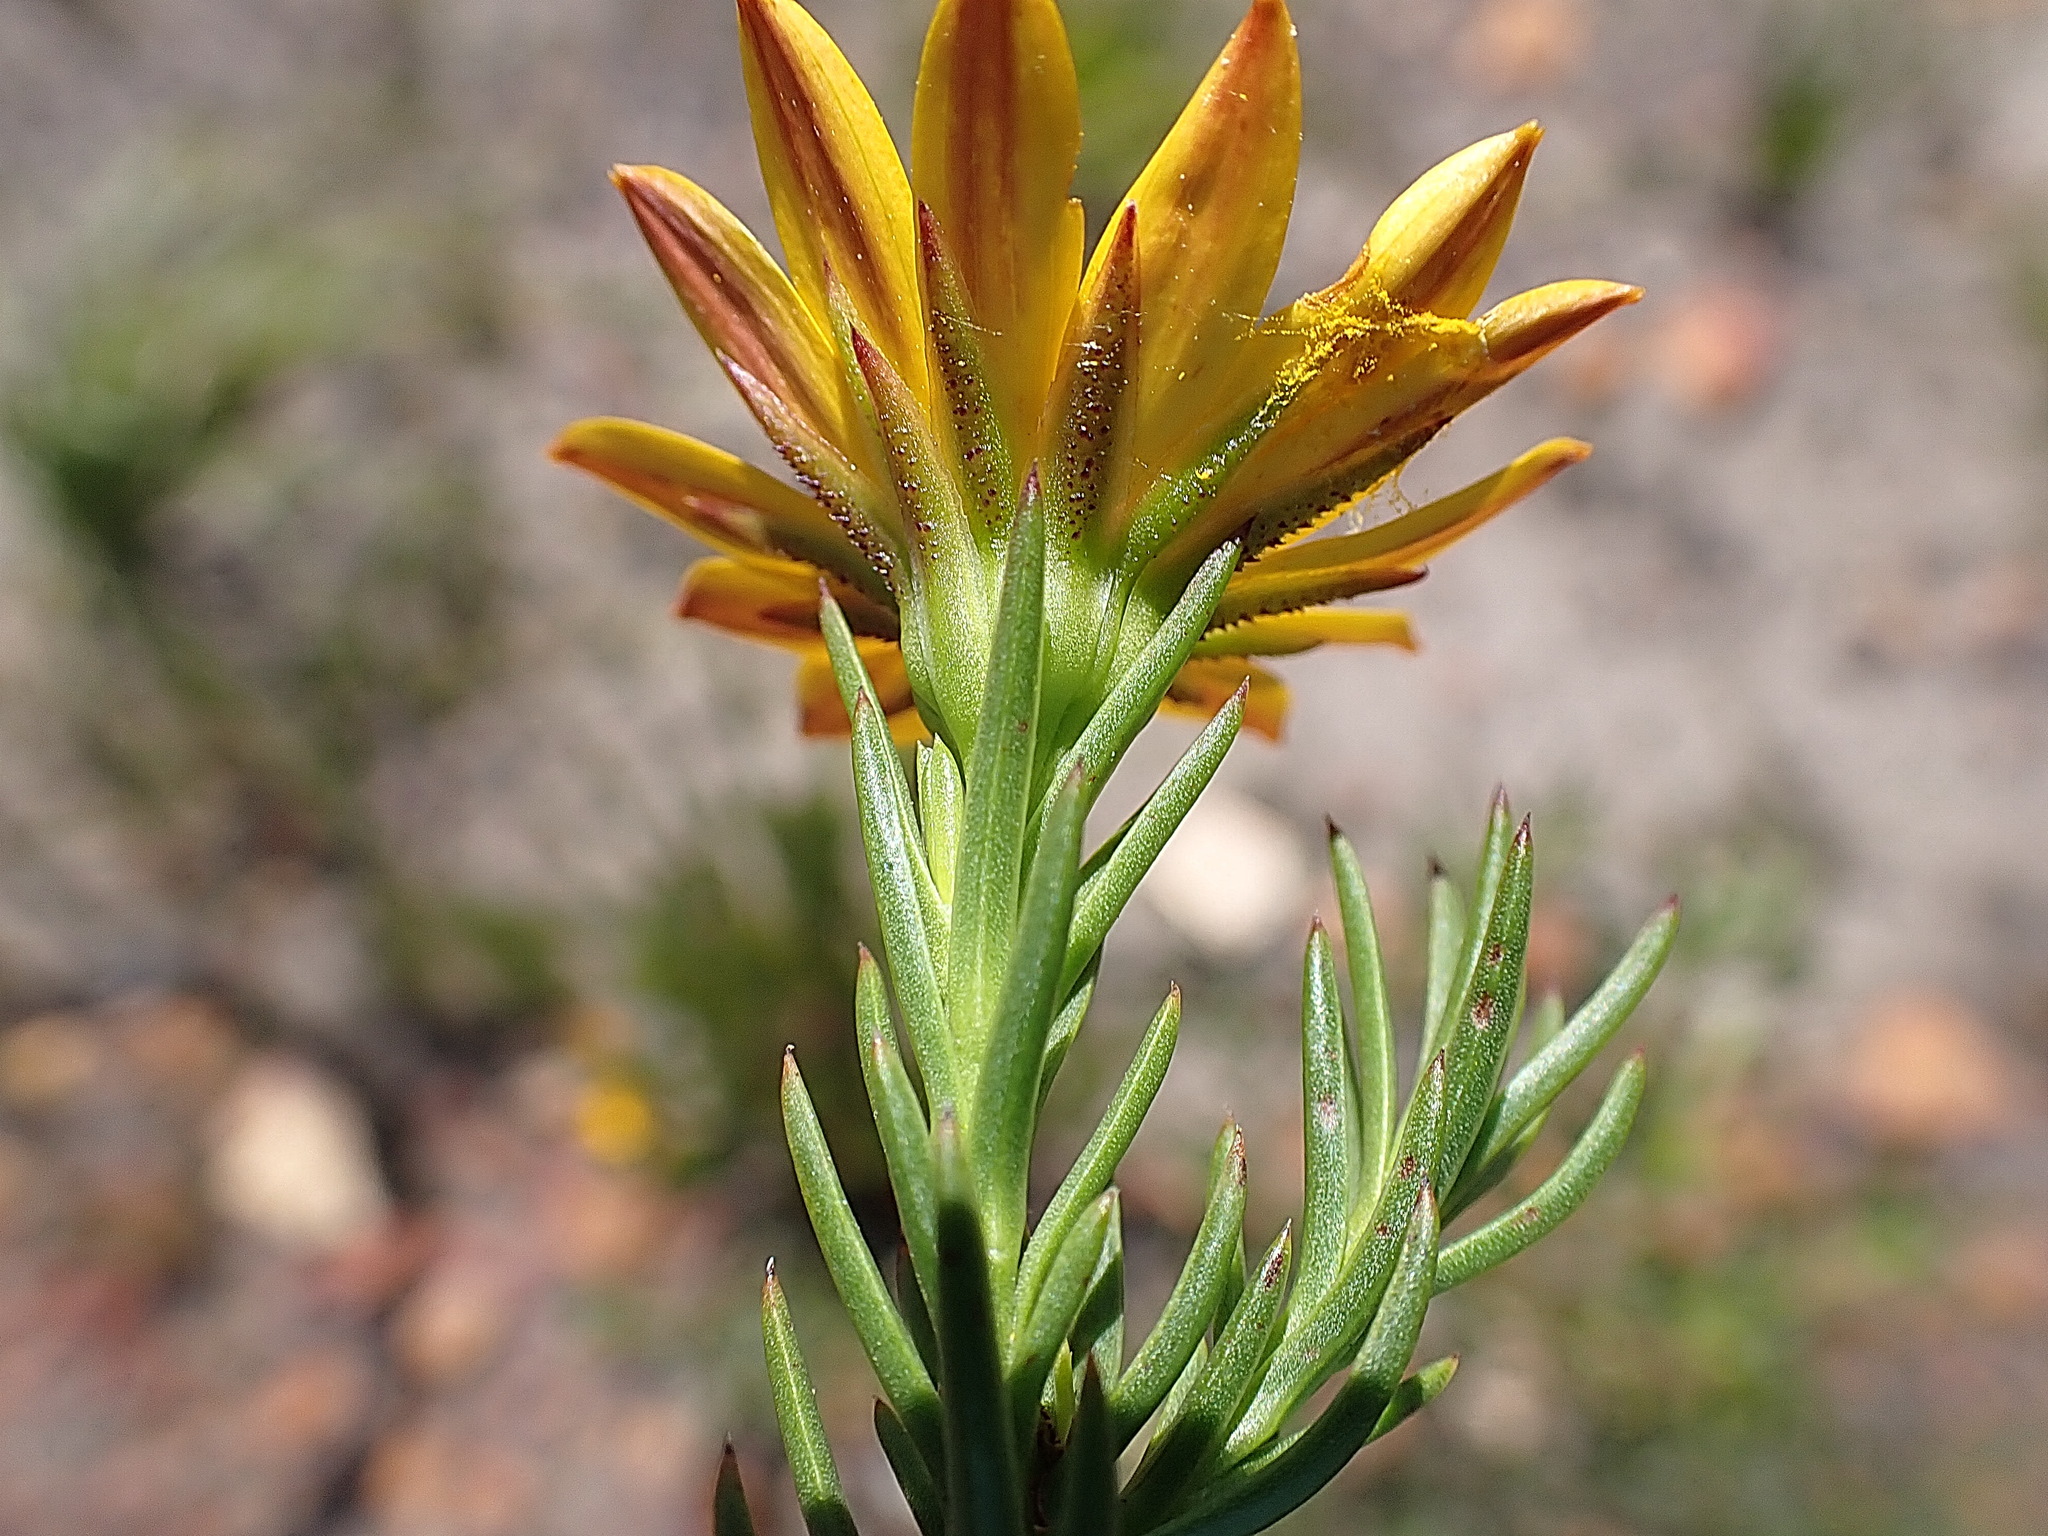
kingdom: Plantae
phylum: Tracheophyta
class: Magnoliopsida
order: Asterales
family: Asteraceae
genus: Oedera
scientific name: Oedera capensis
